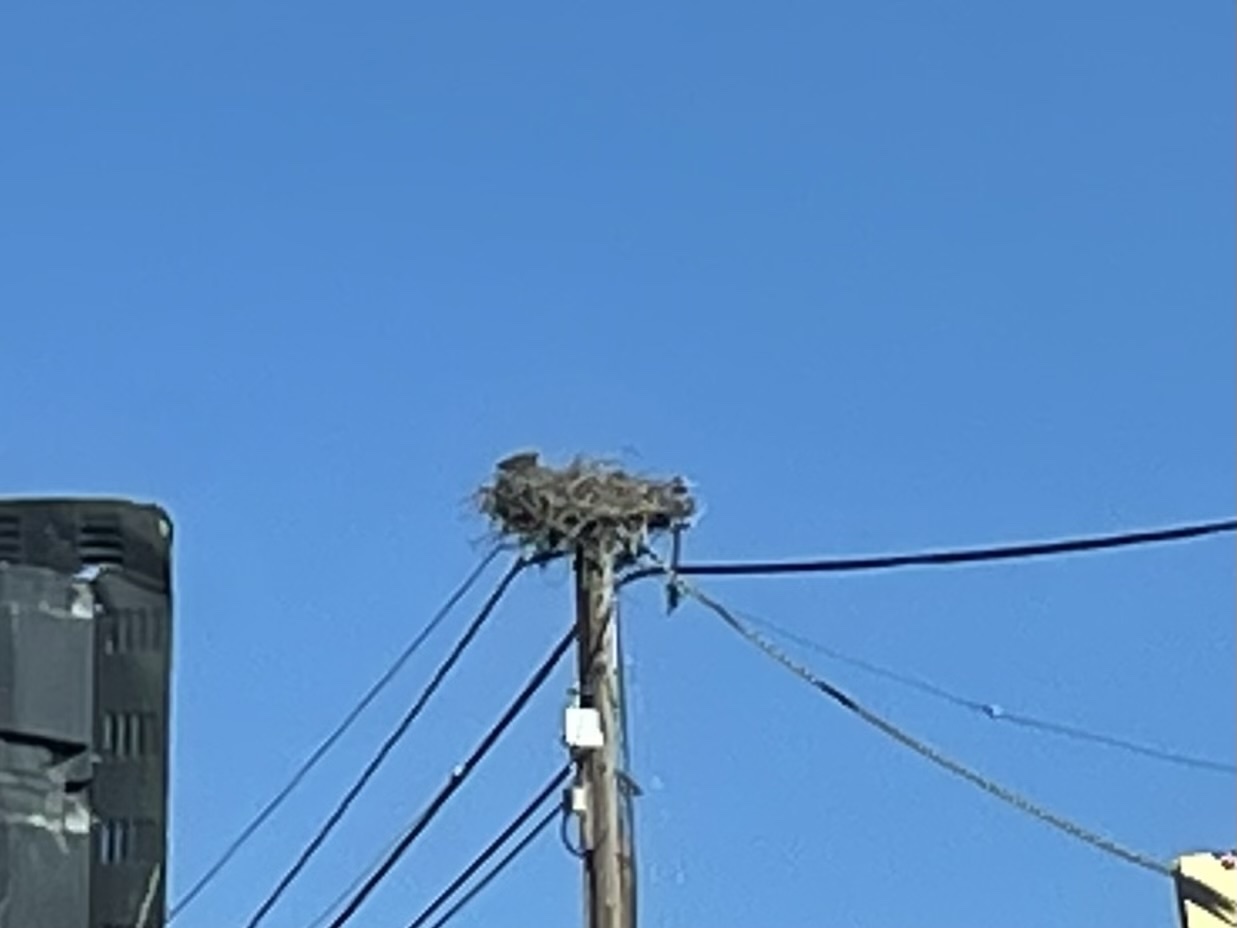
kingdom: Animalia
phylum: Chordata
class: Aves
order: Accipitriformes
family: Pandionidae
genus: Pandion
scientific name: Pandion haliaetus
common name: Osprey
